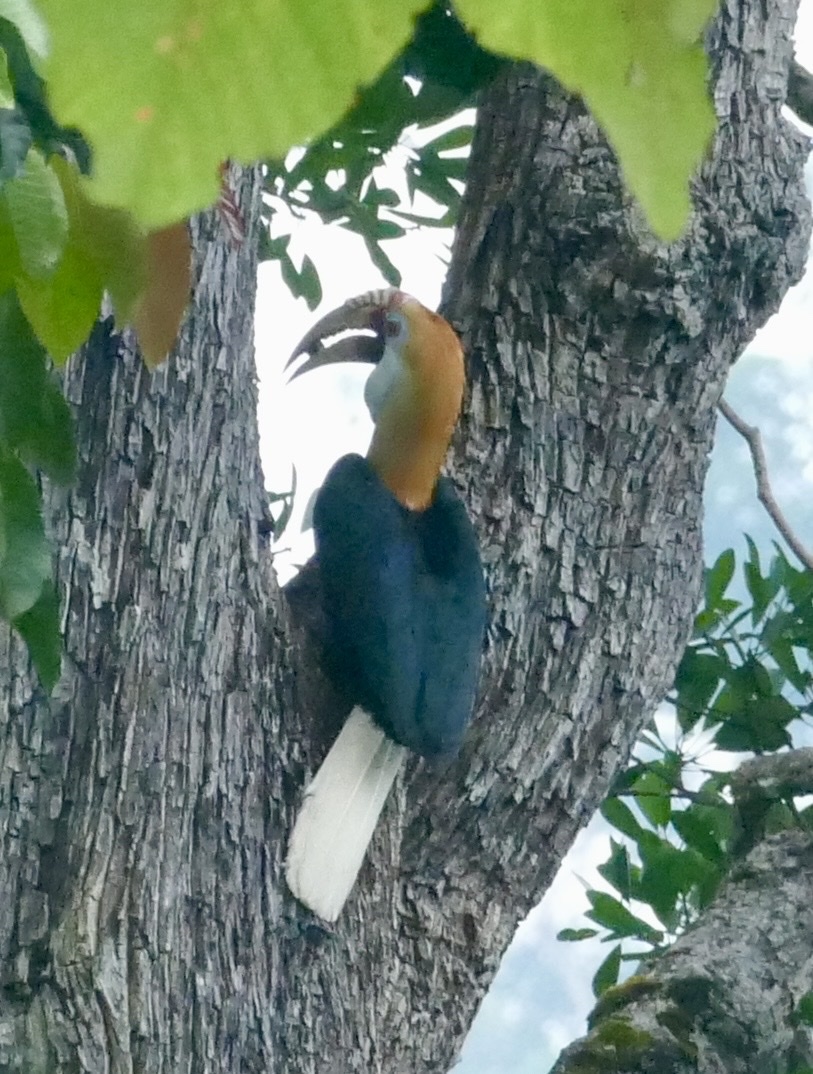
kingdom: Animalia
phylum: Chordata
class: Aves
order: Bucerotiformes
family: Bucerotidae
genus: Rhyticeros
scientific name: Rhyticeros plicatus
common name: Blyth's hornbill
